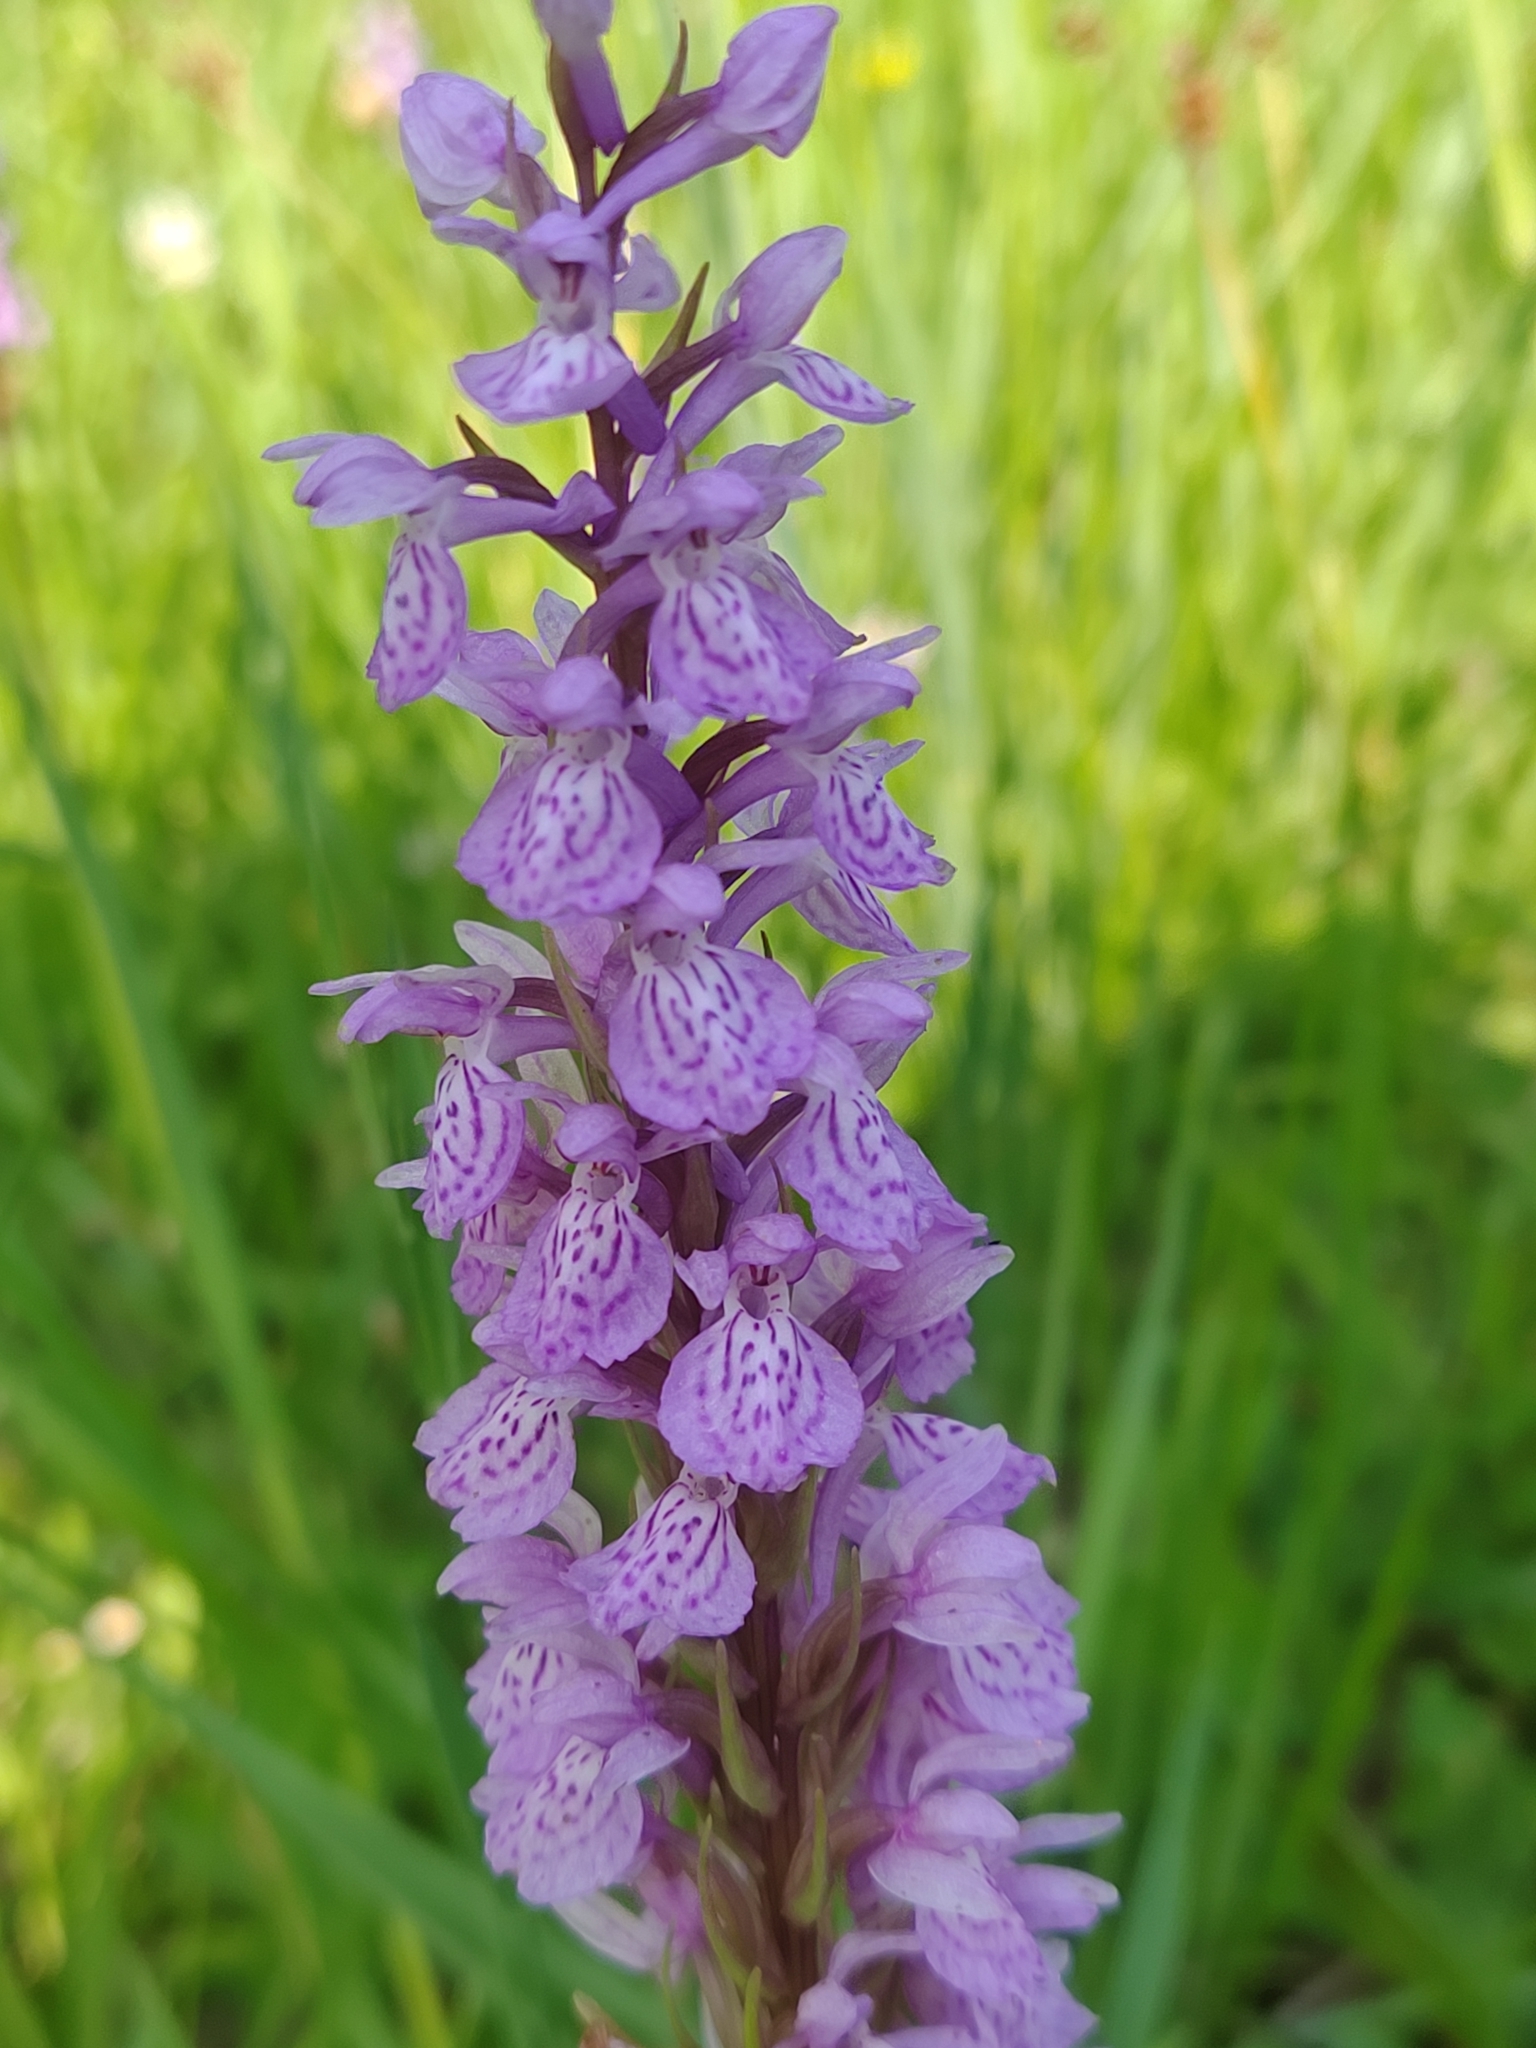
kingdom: Plantae
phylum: Tracheophyta
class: Liliopsida
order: Asparagales
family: Orchidaceae
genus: Dactylorhiza
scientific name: Dactylorhiza maculata
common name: Heath spotted-orchid
